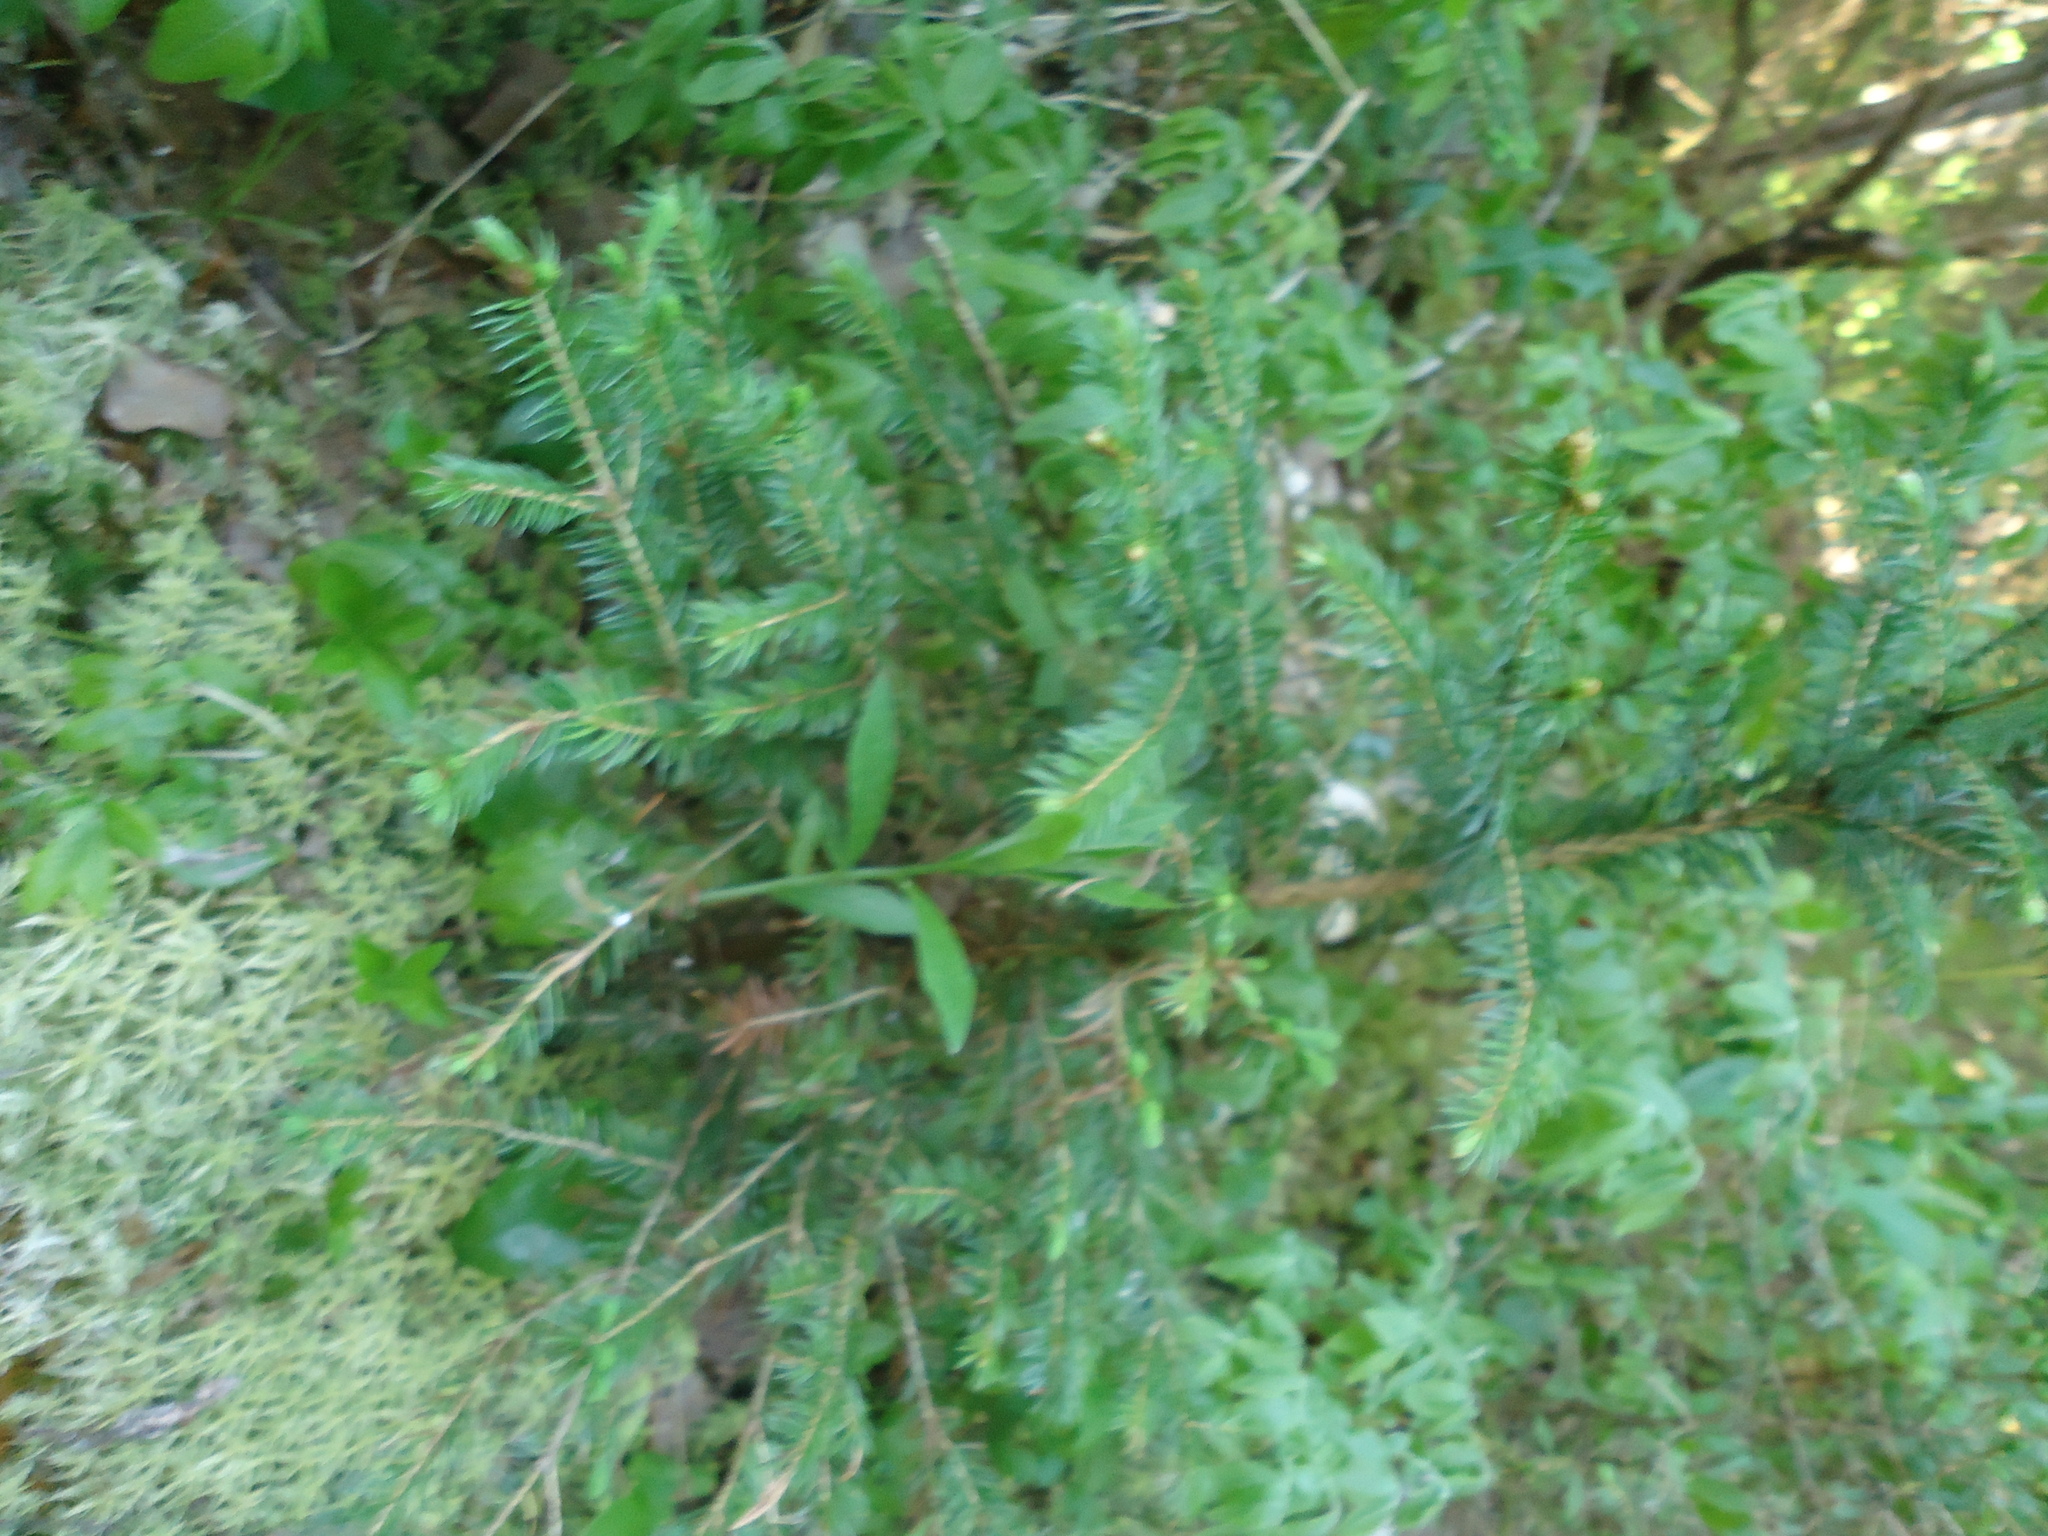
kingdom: Plantae
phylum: Tracheophyta
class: Pinopsida
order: Pinales
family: Pinaceae
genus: Abies
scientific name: Abies balsamea
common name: Balsam fir
